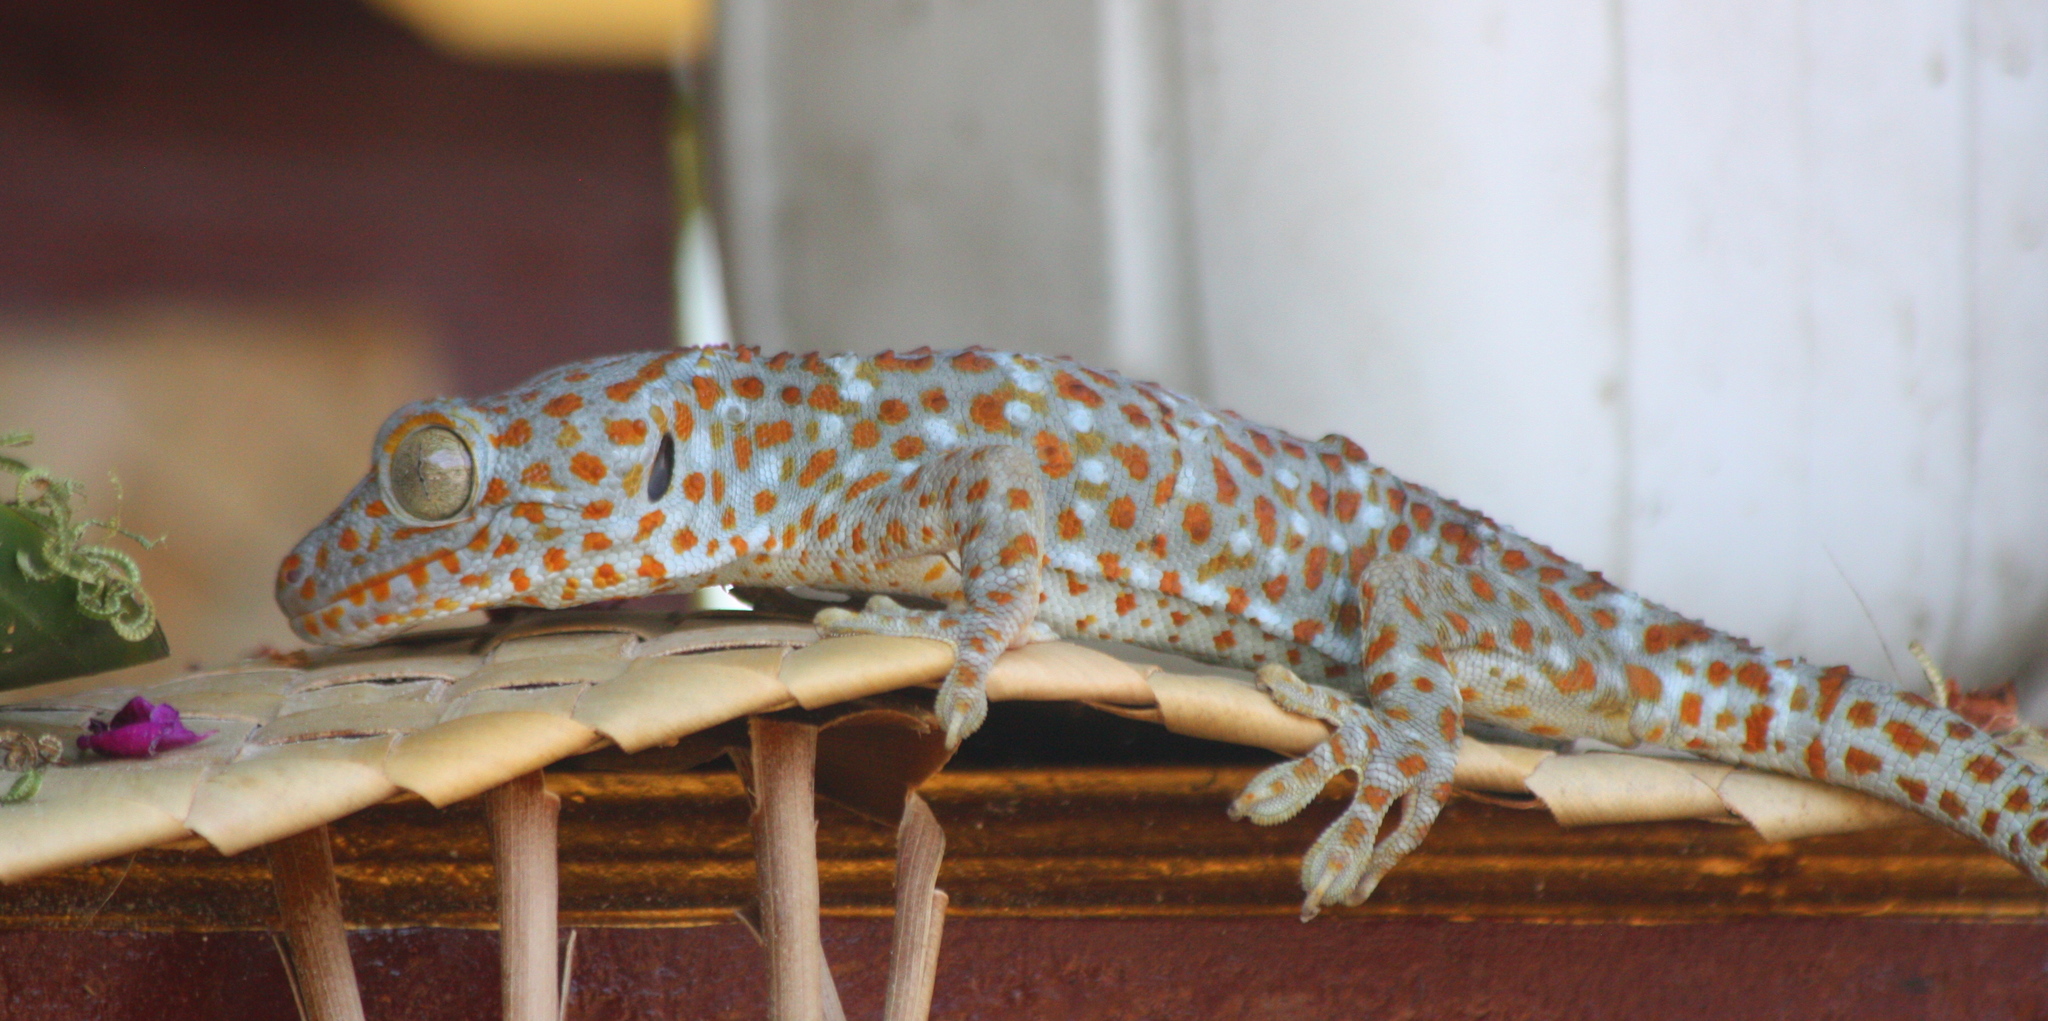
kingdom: Animalia
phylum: Chordata
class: Squamata
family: Gekkonidae
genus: Gekko
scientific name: Gekko gecko
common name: Tokay gecko
